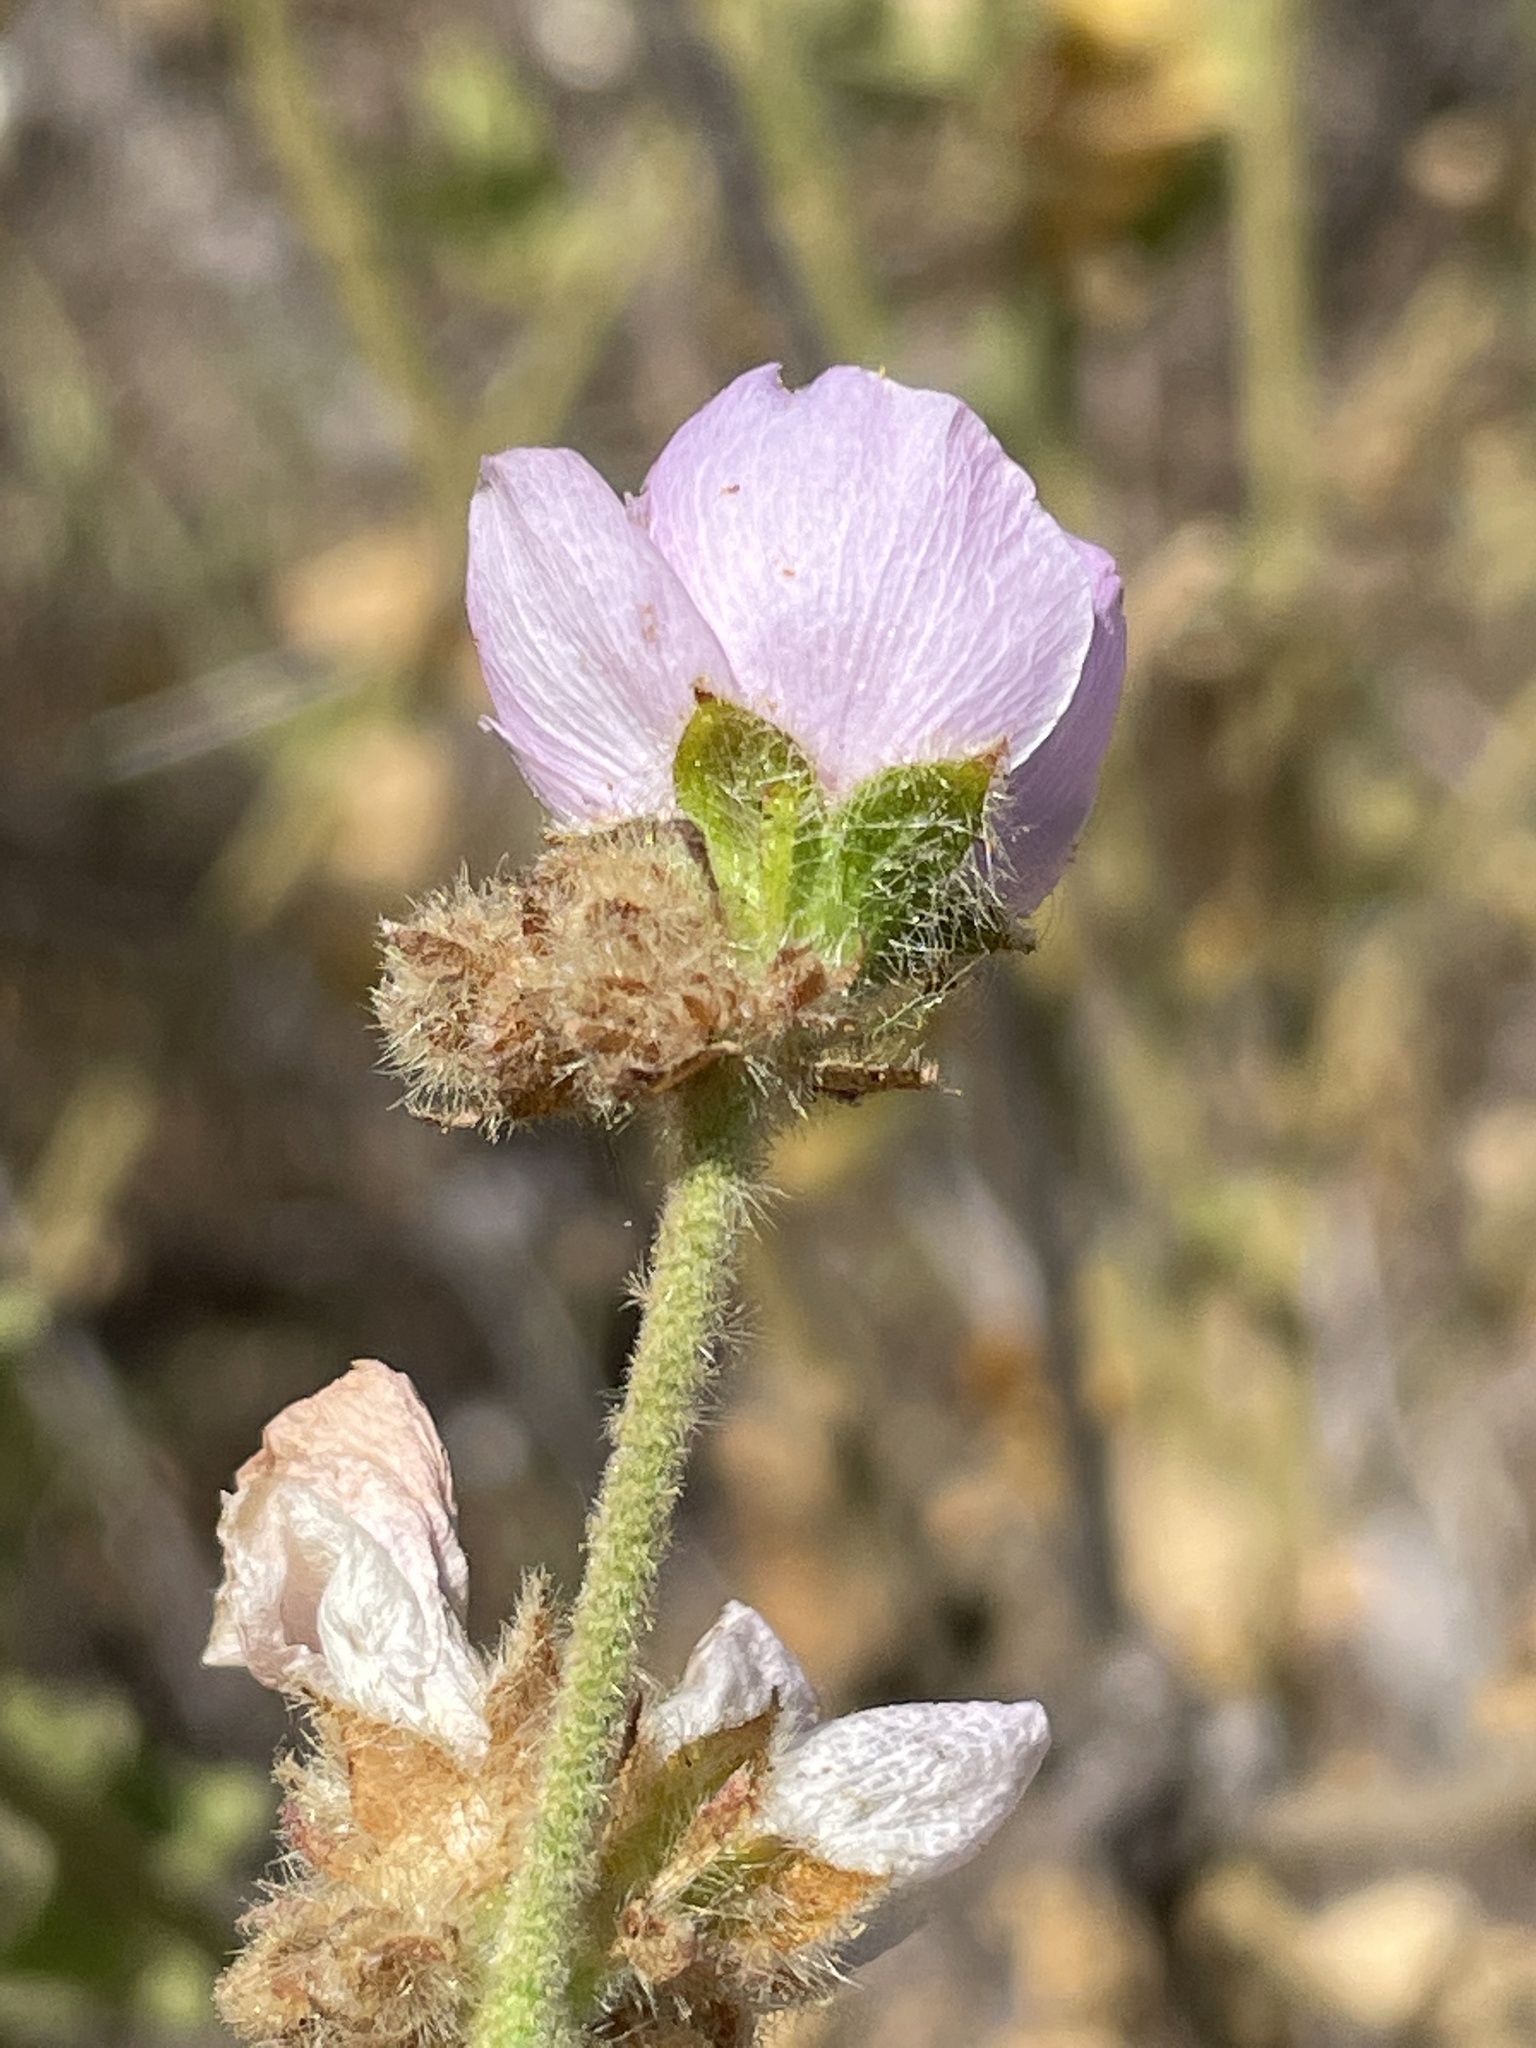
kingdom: Plantae
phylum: Tracheophyta
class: Magnoliopsida
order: Malvales
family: Malvaceae
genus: Malacothamnus
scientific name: Malacothamnus densiflorus
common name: Yellow-stem bush-mallow
